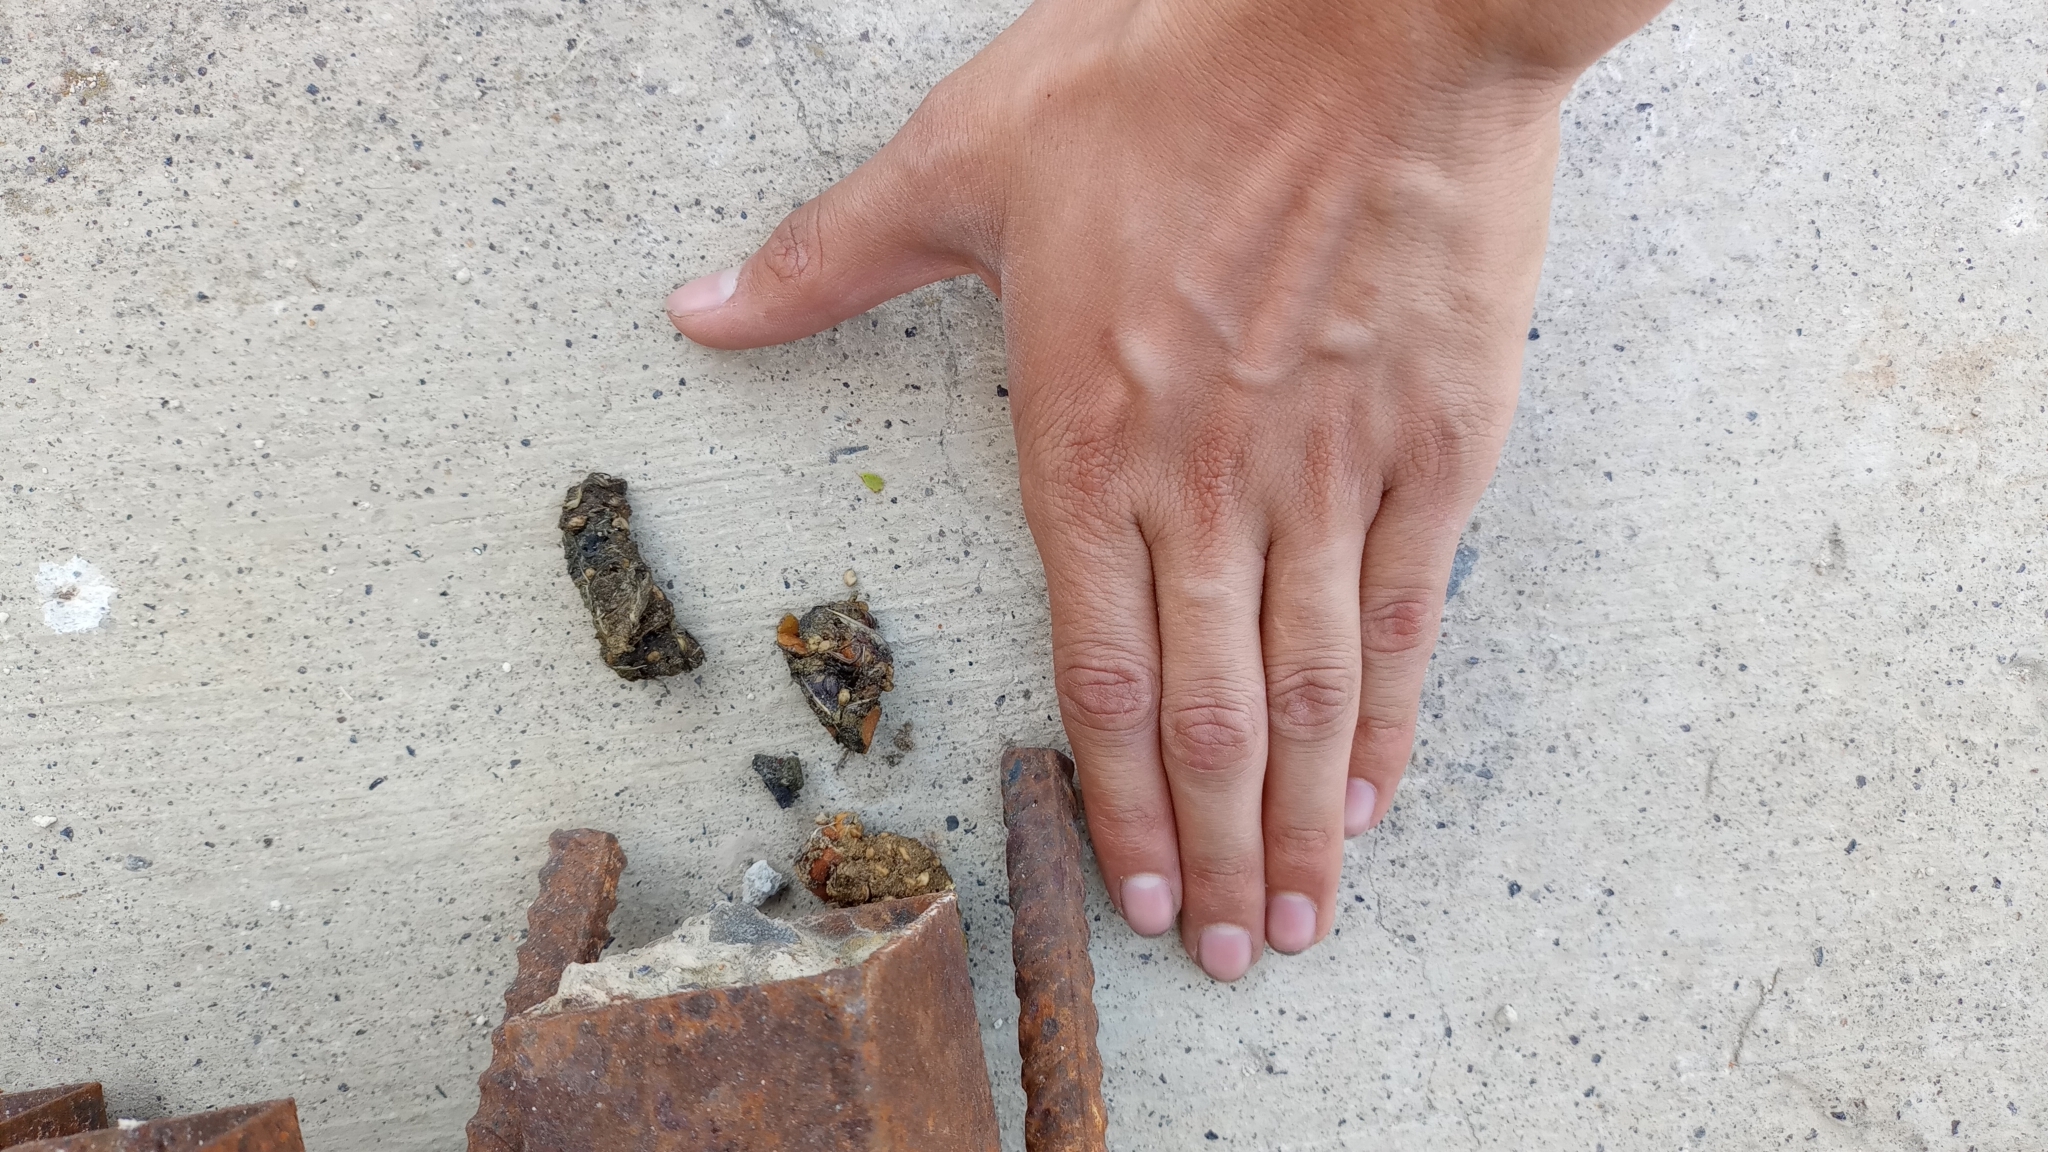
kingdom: Animalia
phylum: Chordata
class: Mammalia
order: Carnivora
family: Canidae
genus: Urocyon
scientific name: Urocyon cinereoargenteus
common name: Gray fox
